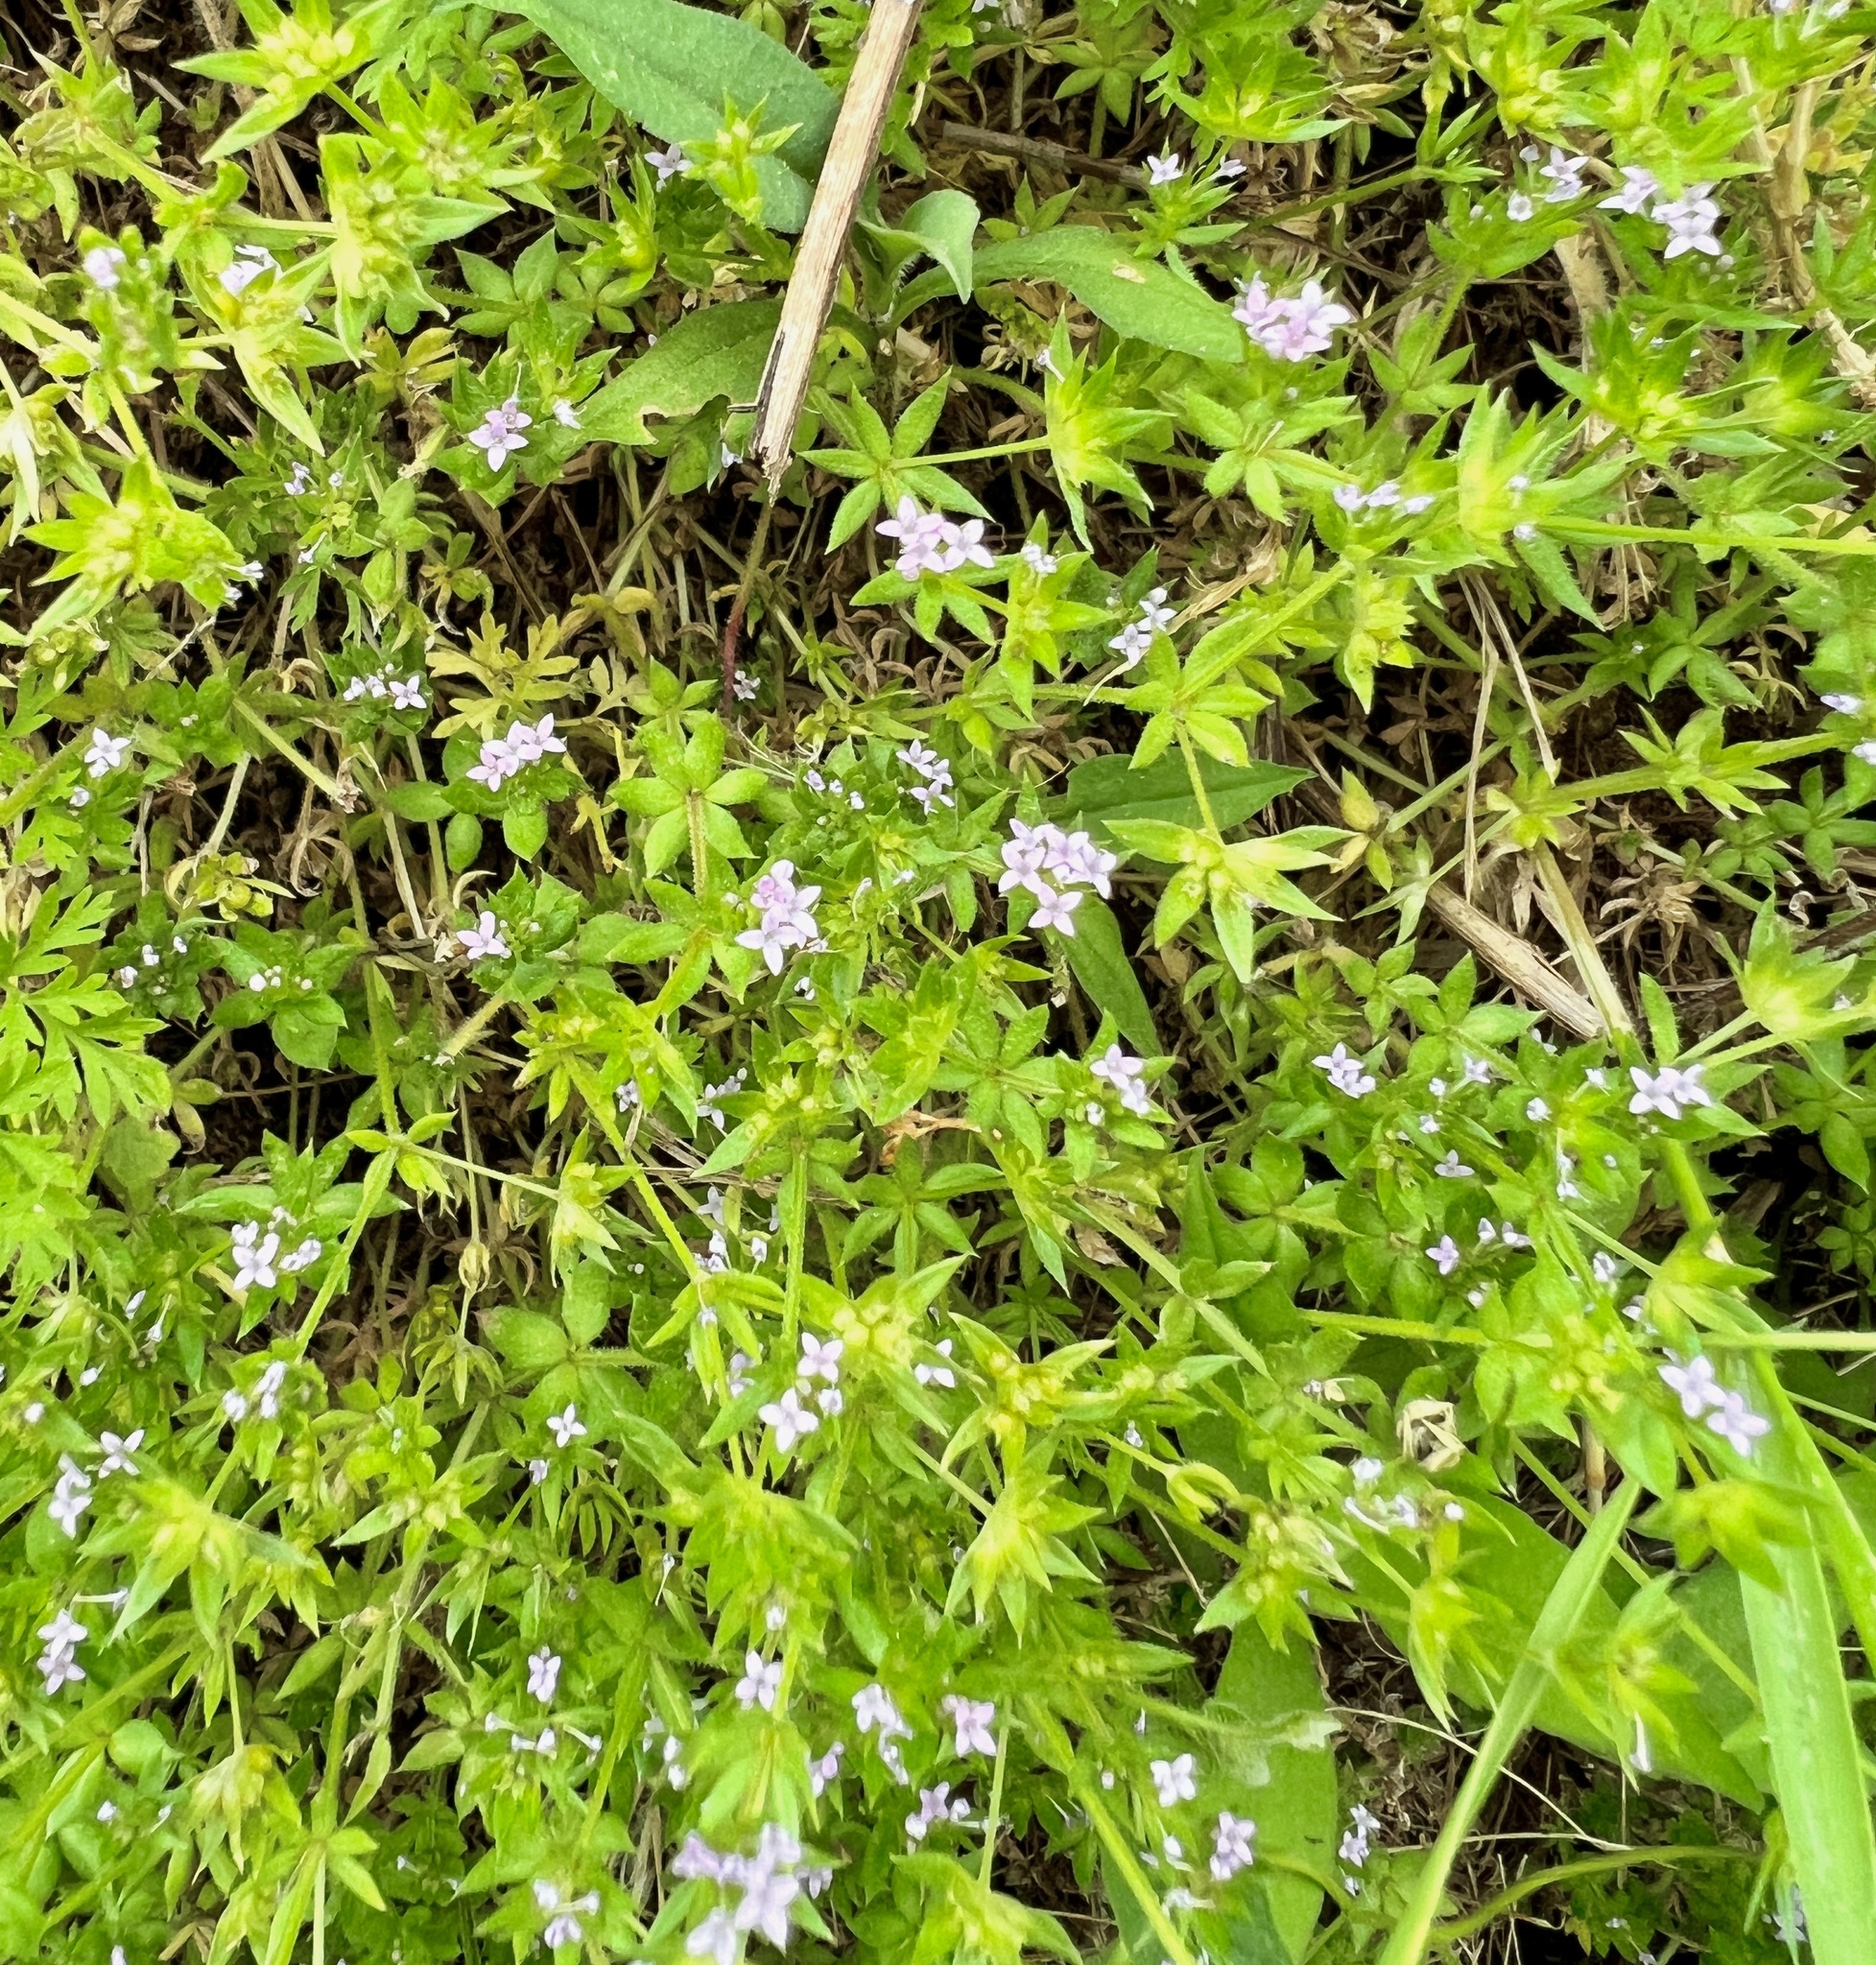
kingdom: Plantae
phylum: Tracheophyta
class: Magnoliopsida
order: Gentianales
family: Rubiaceae
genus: Sherardia
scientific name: Sherardia arvensis
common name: Field madder
